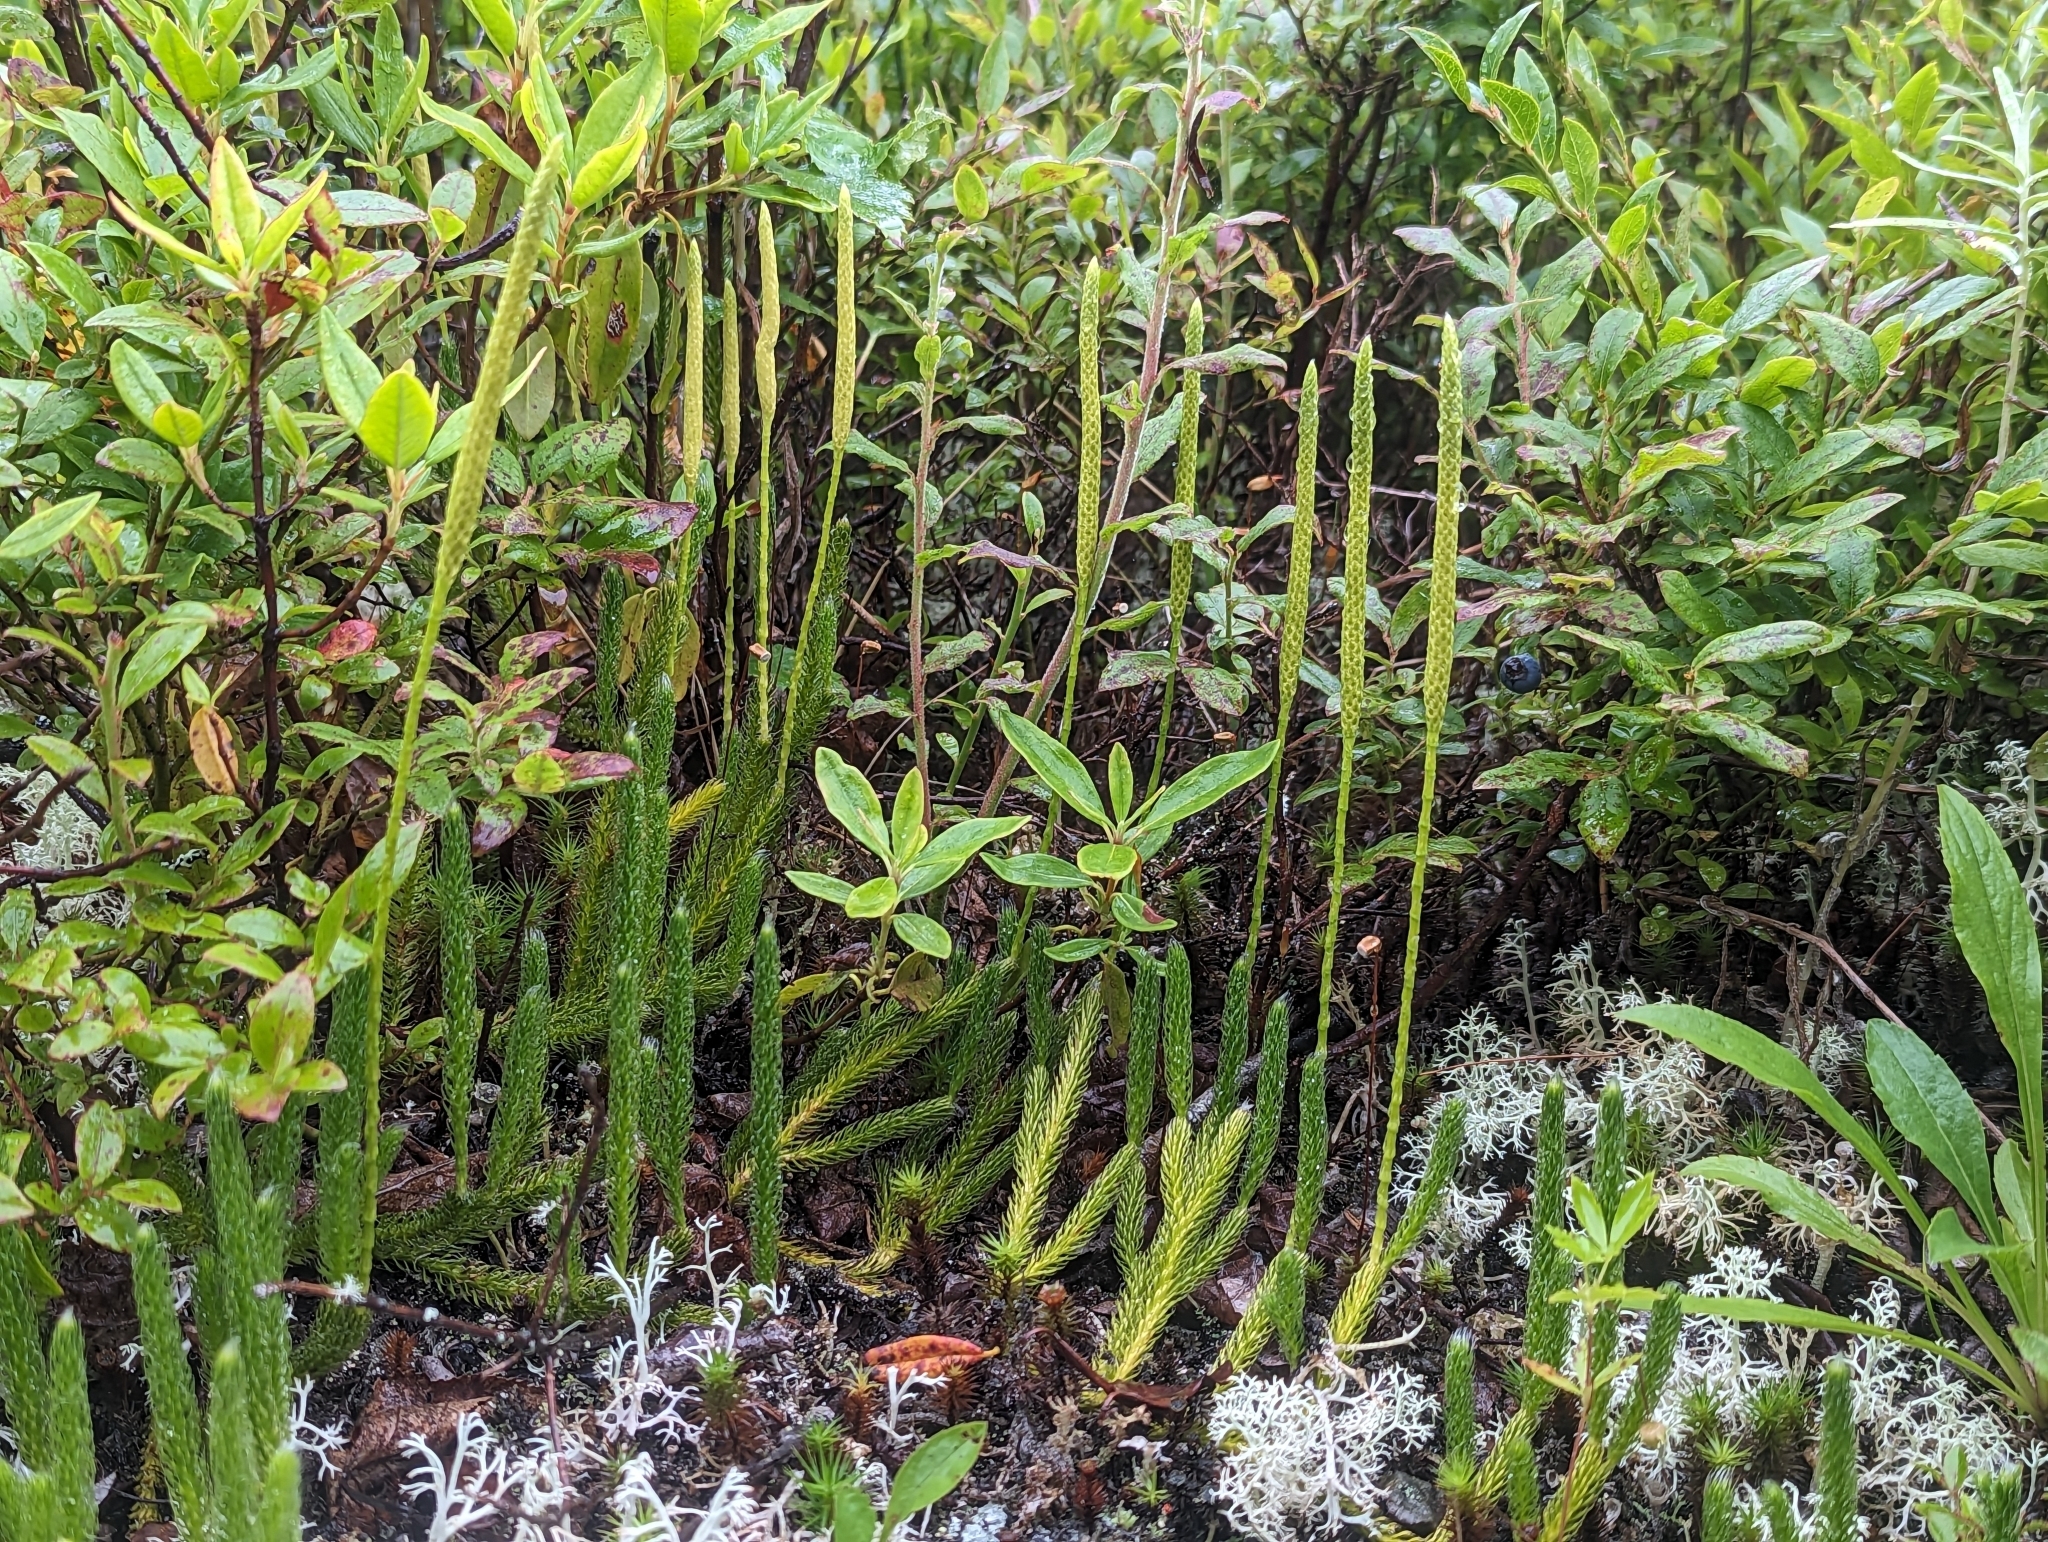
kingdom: Plantae
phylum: Tracheophyta
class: Lycopodiopsida
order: Lycopodiales
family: Lycopodiaceae
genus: Lycopodium
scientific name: Lycopodium lagopus
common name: One-cone clubmoss
